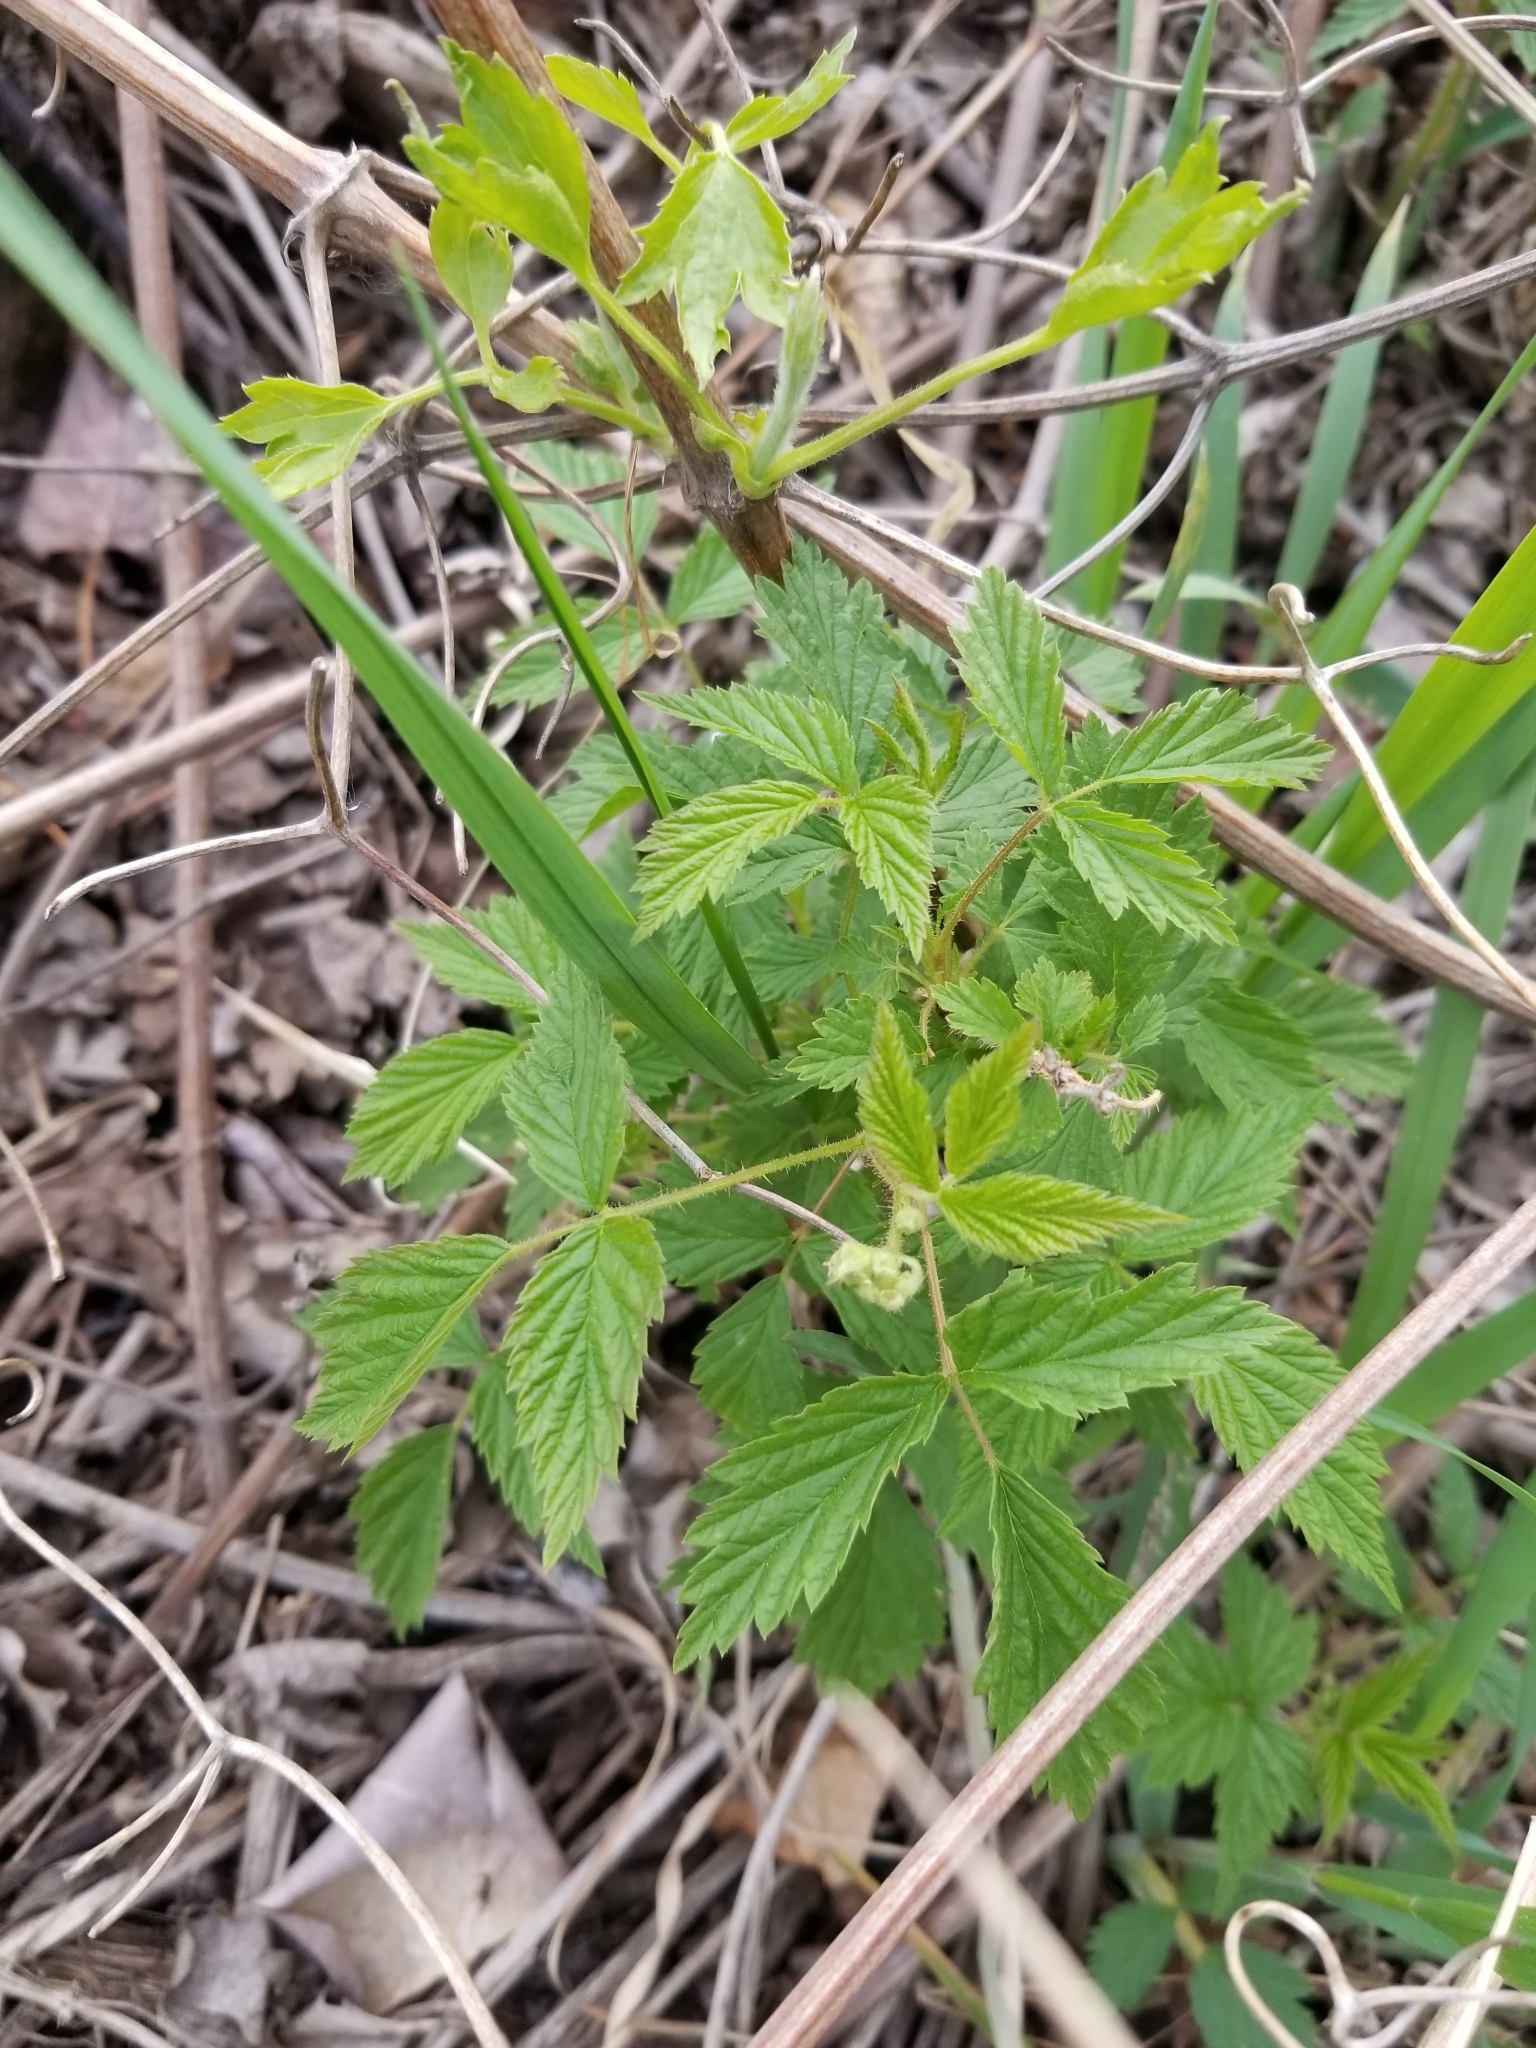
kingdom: Plantae
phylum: Tracheophyta
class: Magnoliopsida
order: Rosales
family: Rosaceae
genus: Rubus
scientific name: Rubus idaeus
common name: Raspberry
